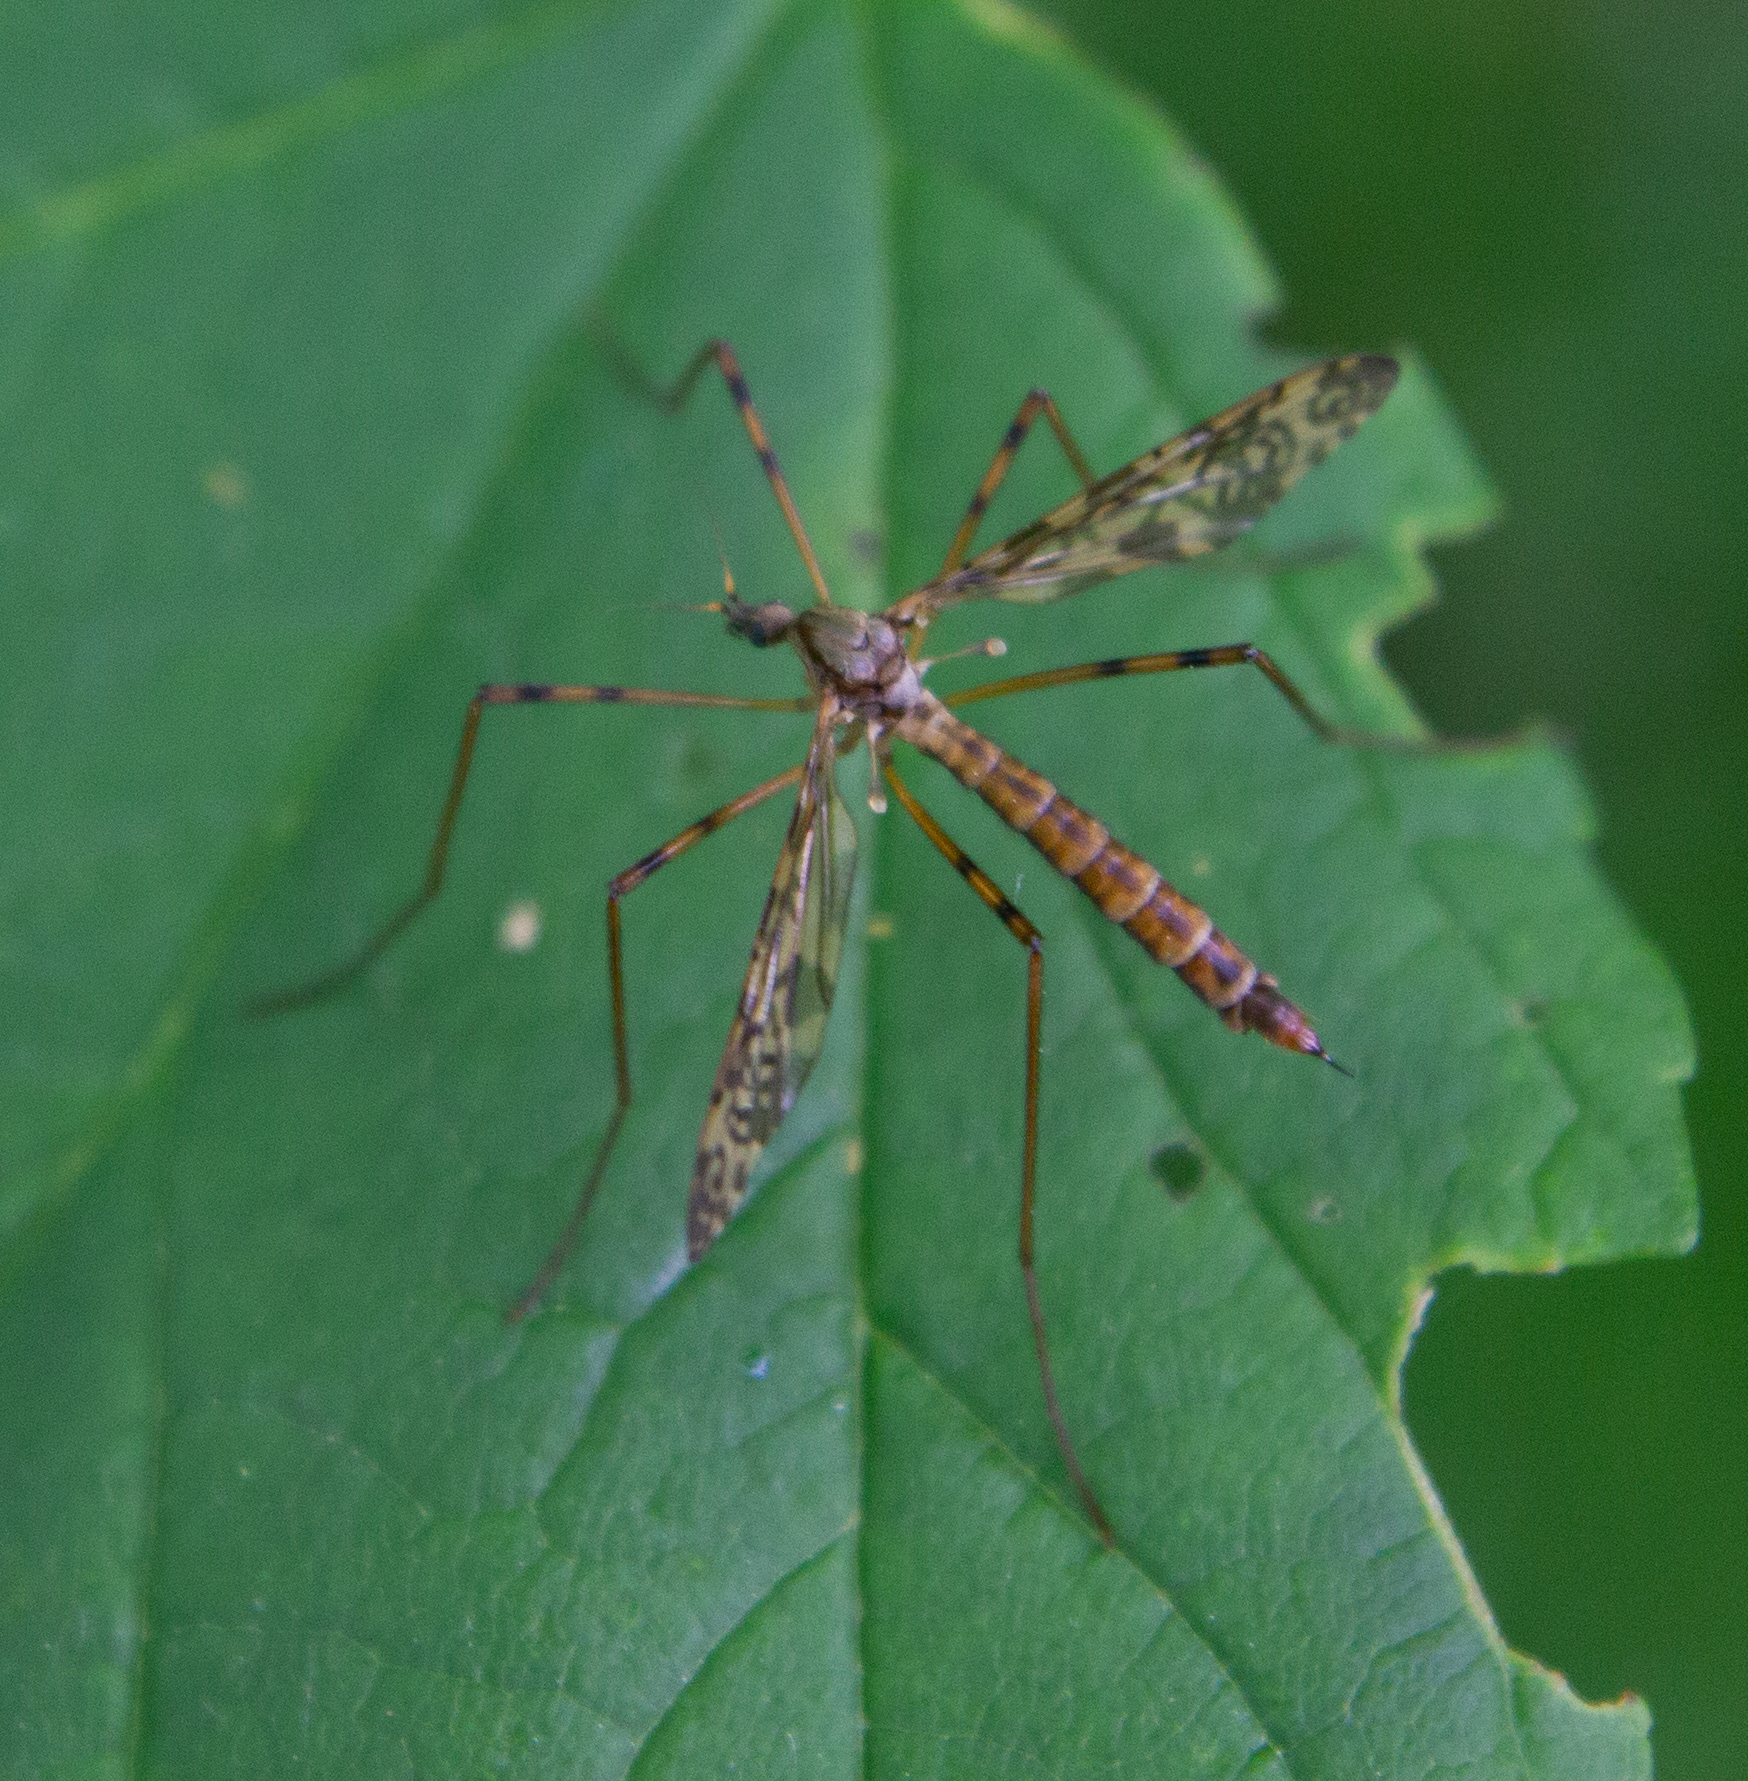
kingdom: Animalia
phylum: Arthropoda
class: Insecta
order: Diptera
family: Limoniidae
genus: Epiphragma
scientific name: Epiphragma ocellare
